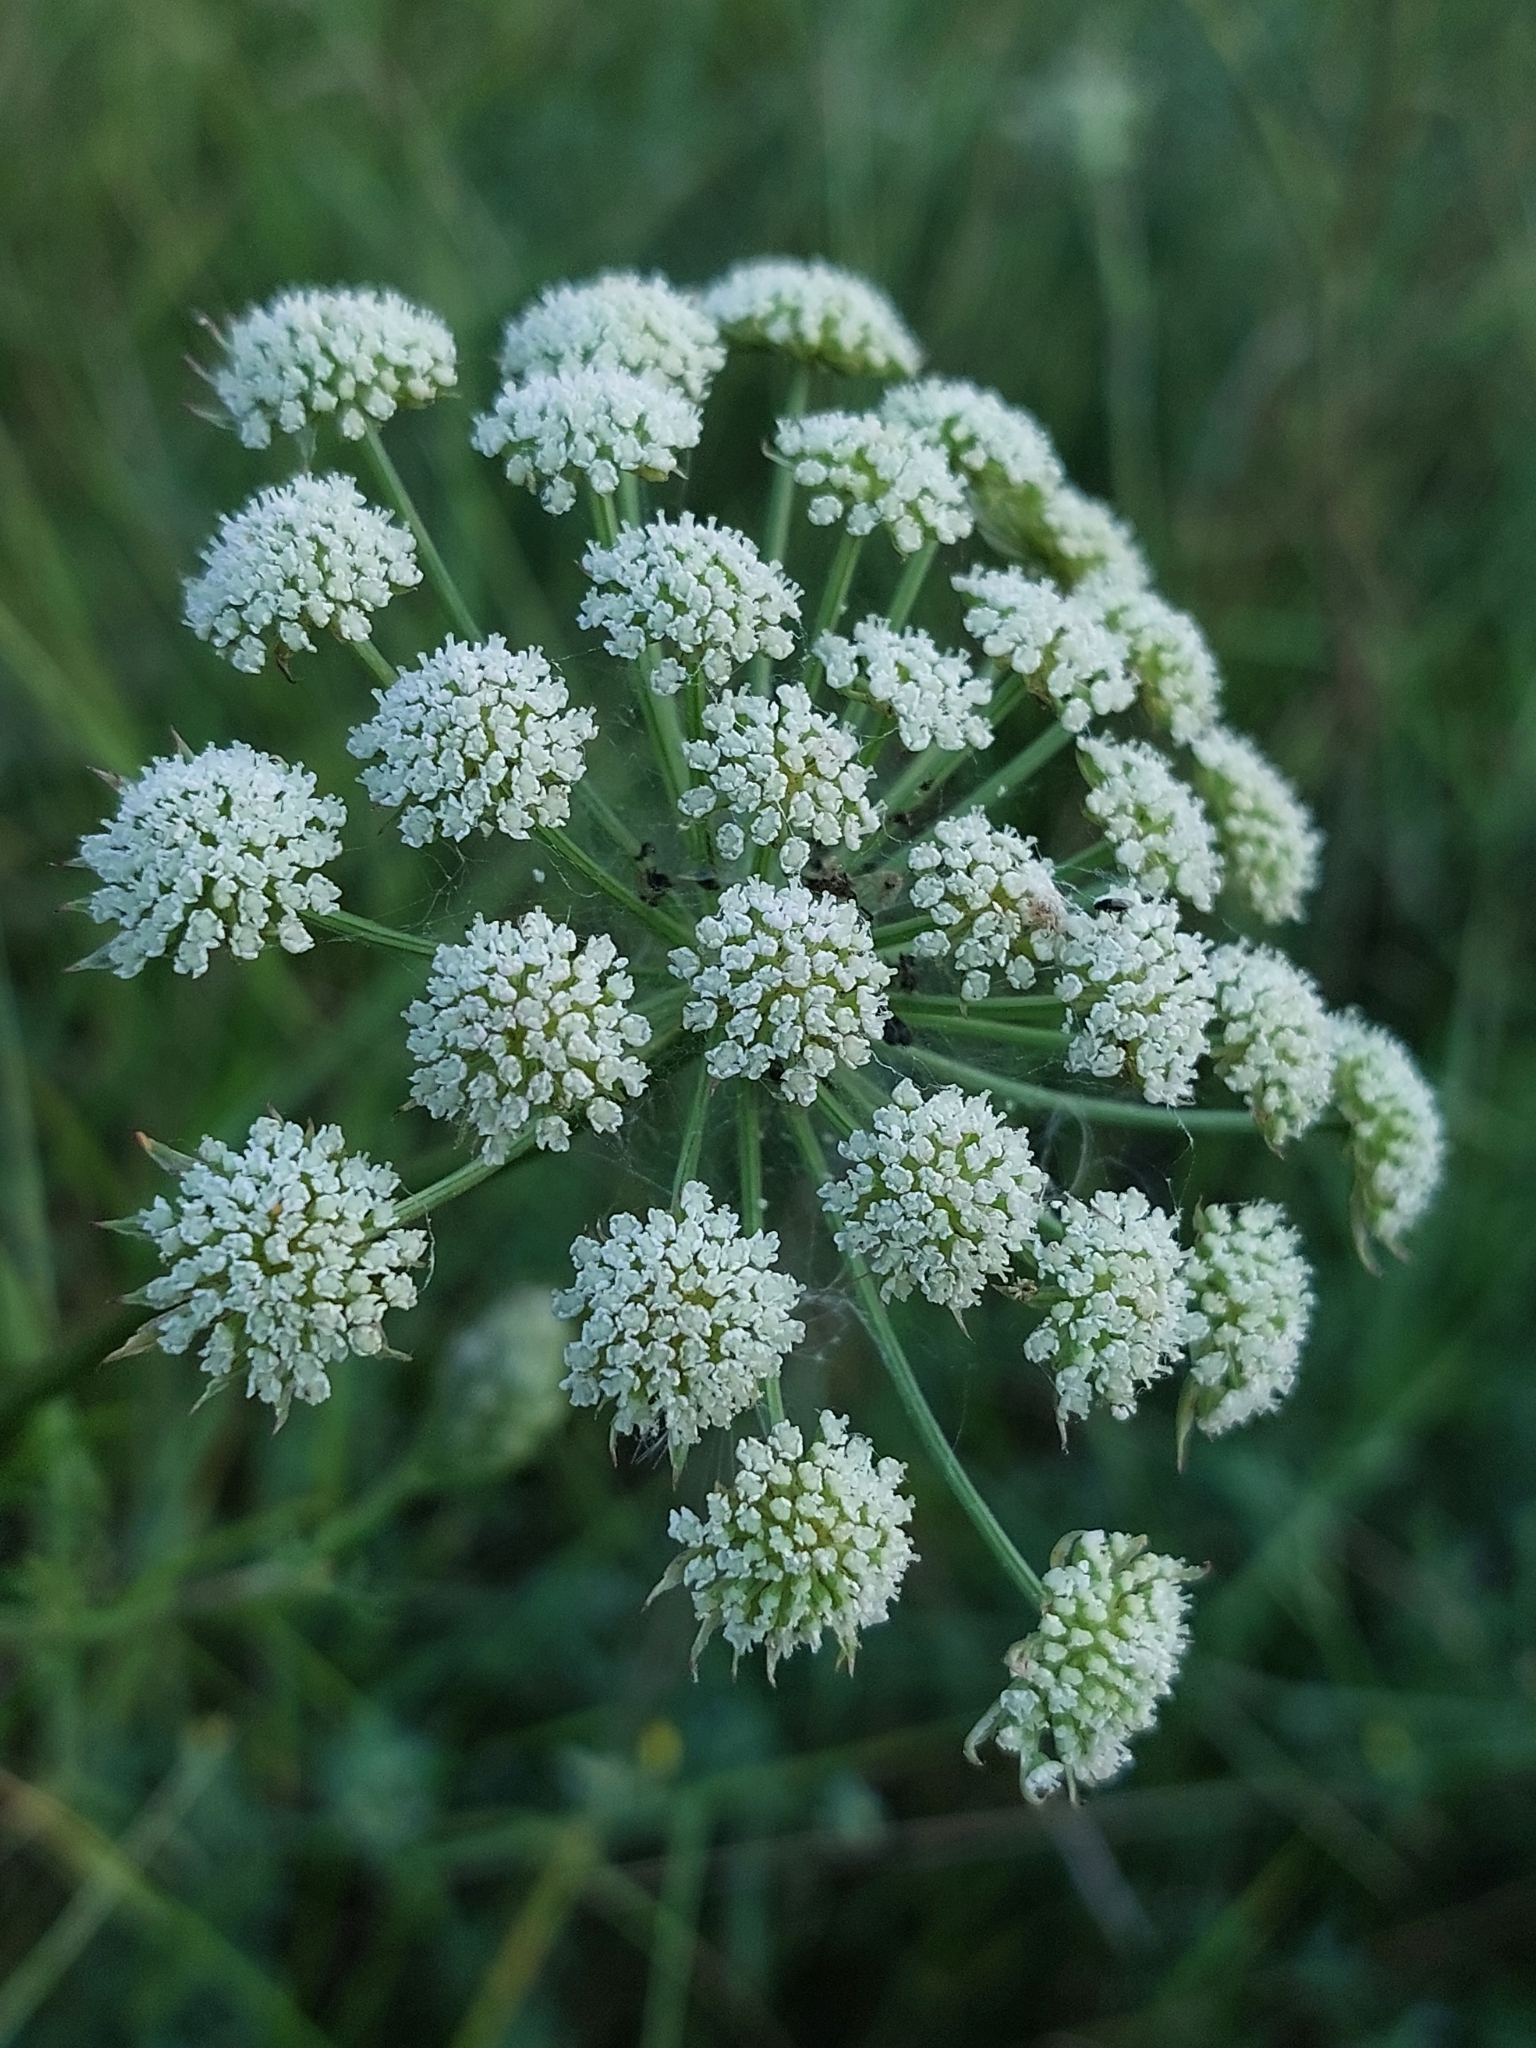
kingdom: Plantae
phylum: Tracheophyta
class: Magnoliopsida
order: Apiales
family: Apiaceae
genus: Seseli
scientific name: Seseli annuum
